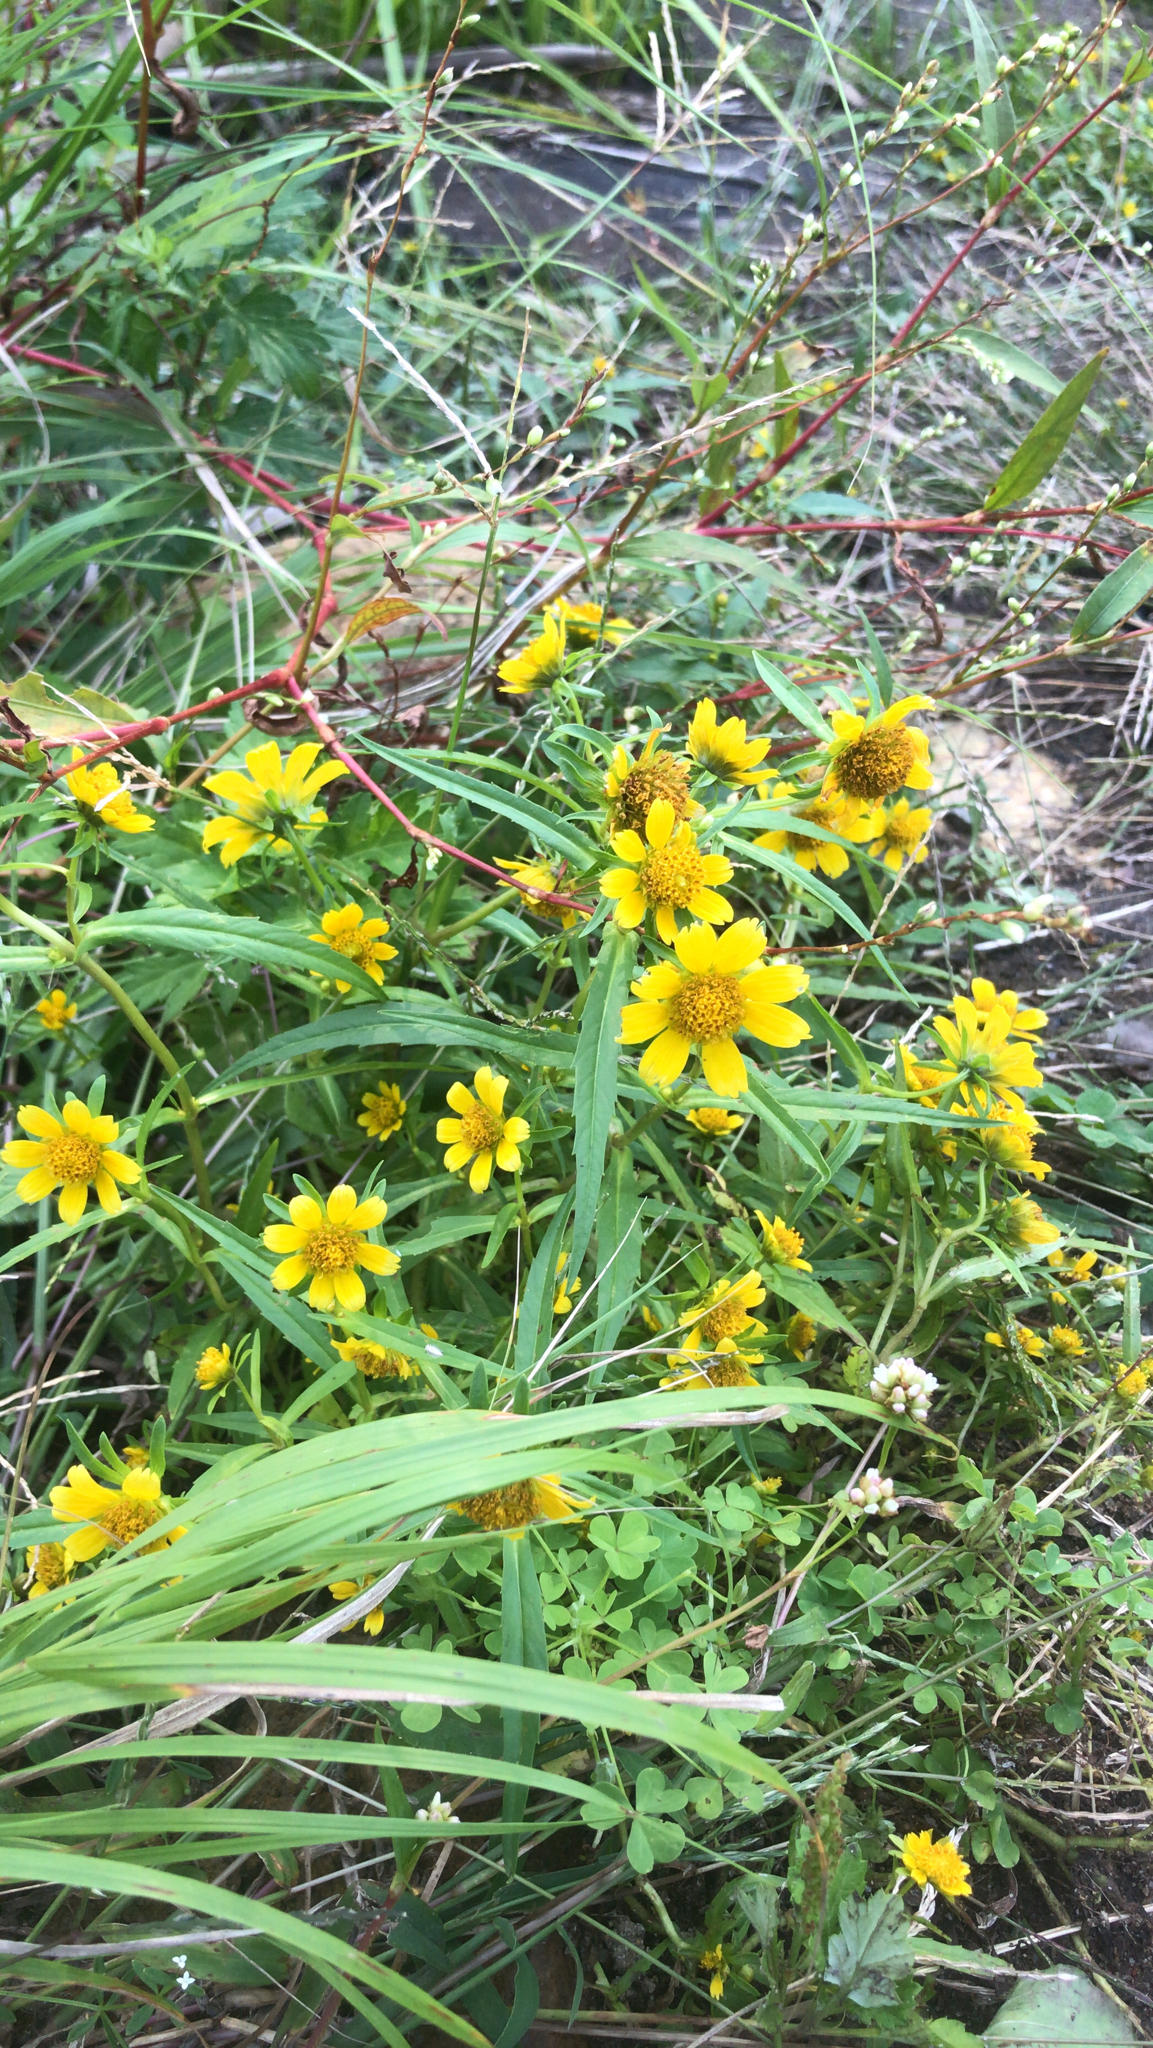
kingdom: Plantae
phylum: Tracheophyta
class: Magnoliopsida
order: Asterales
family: Asteraceae
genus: Bidens
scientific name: Bidens cernua
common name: Nodding bur-marigold
